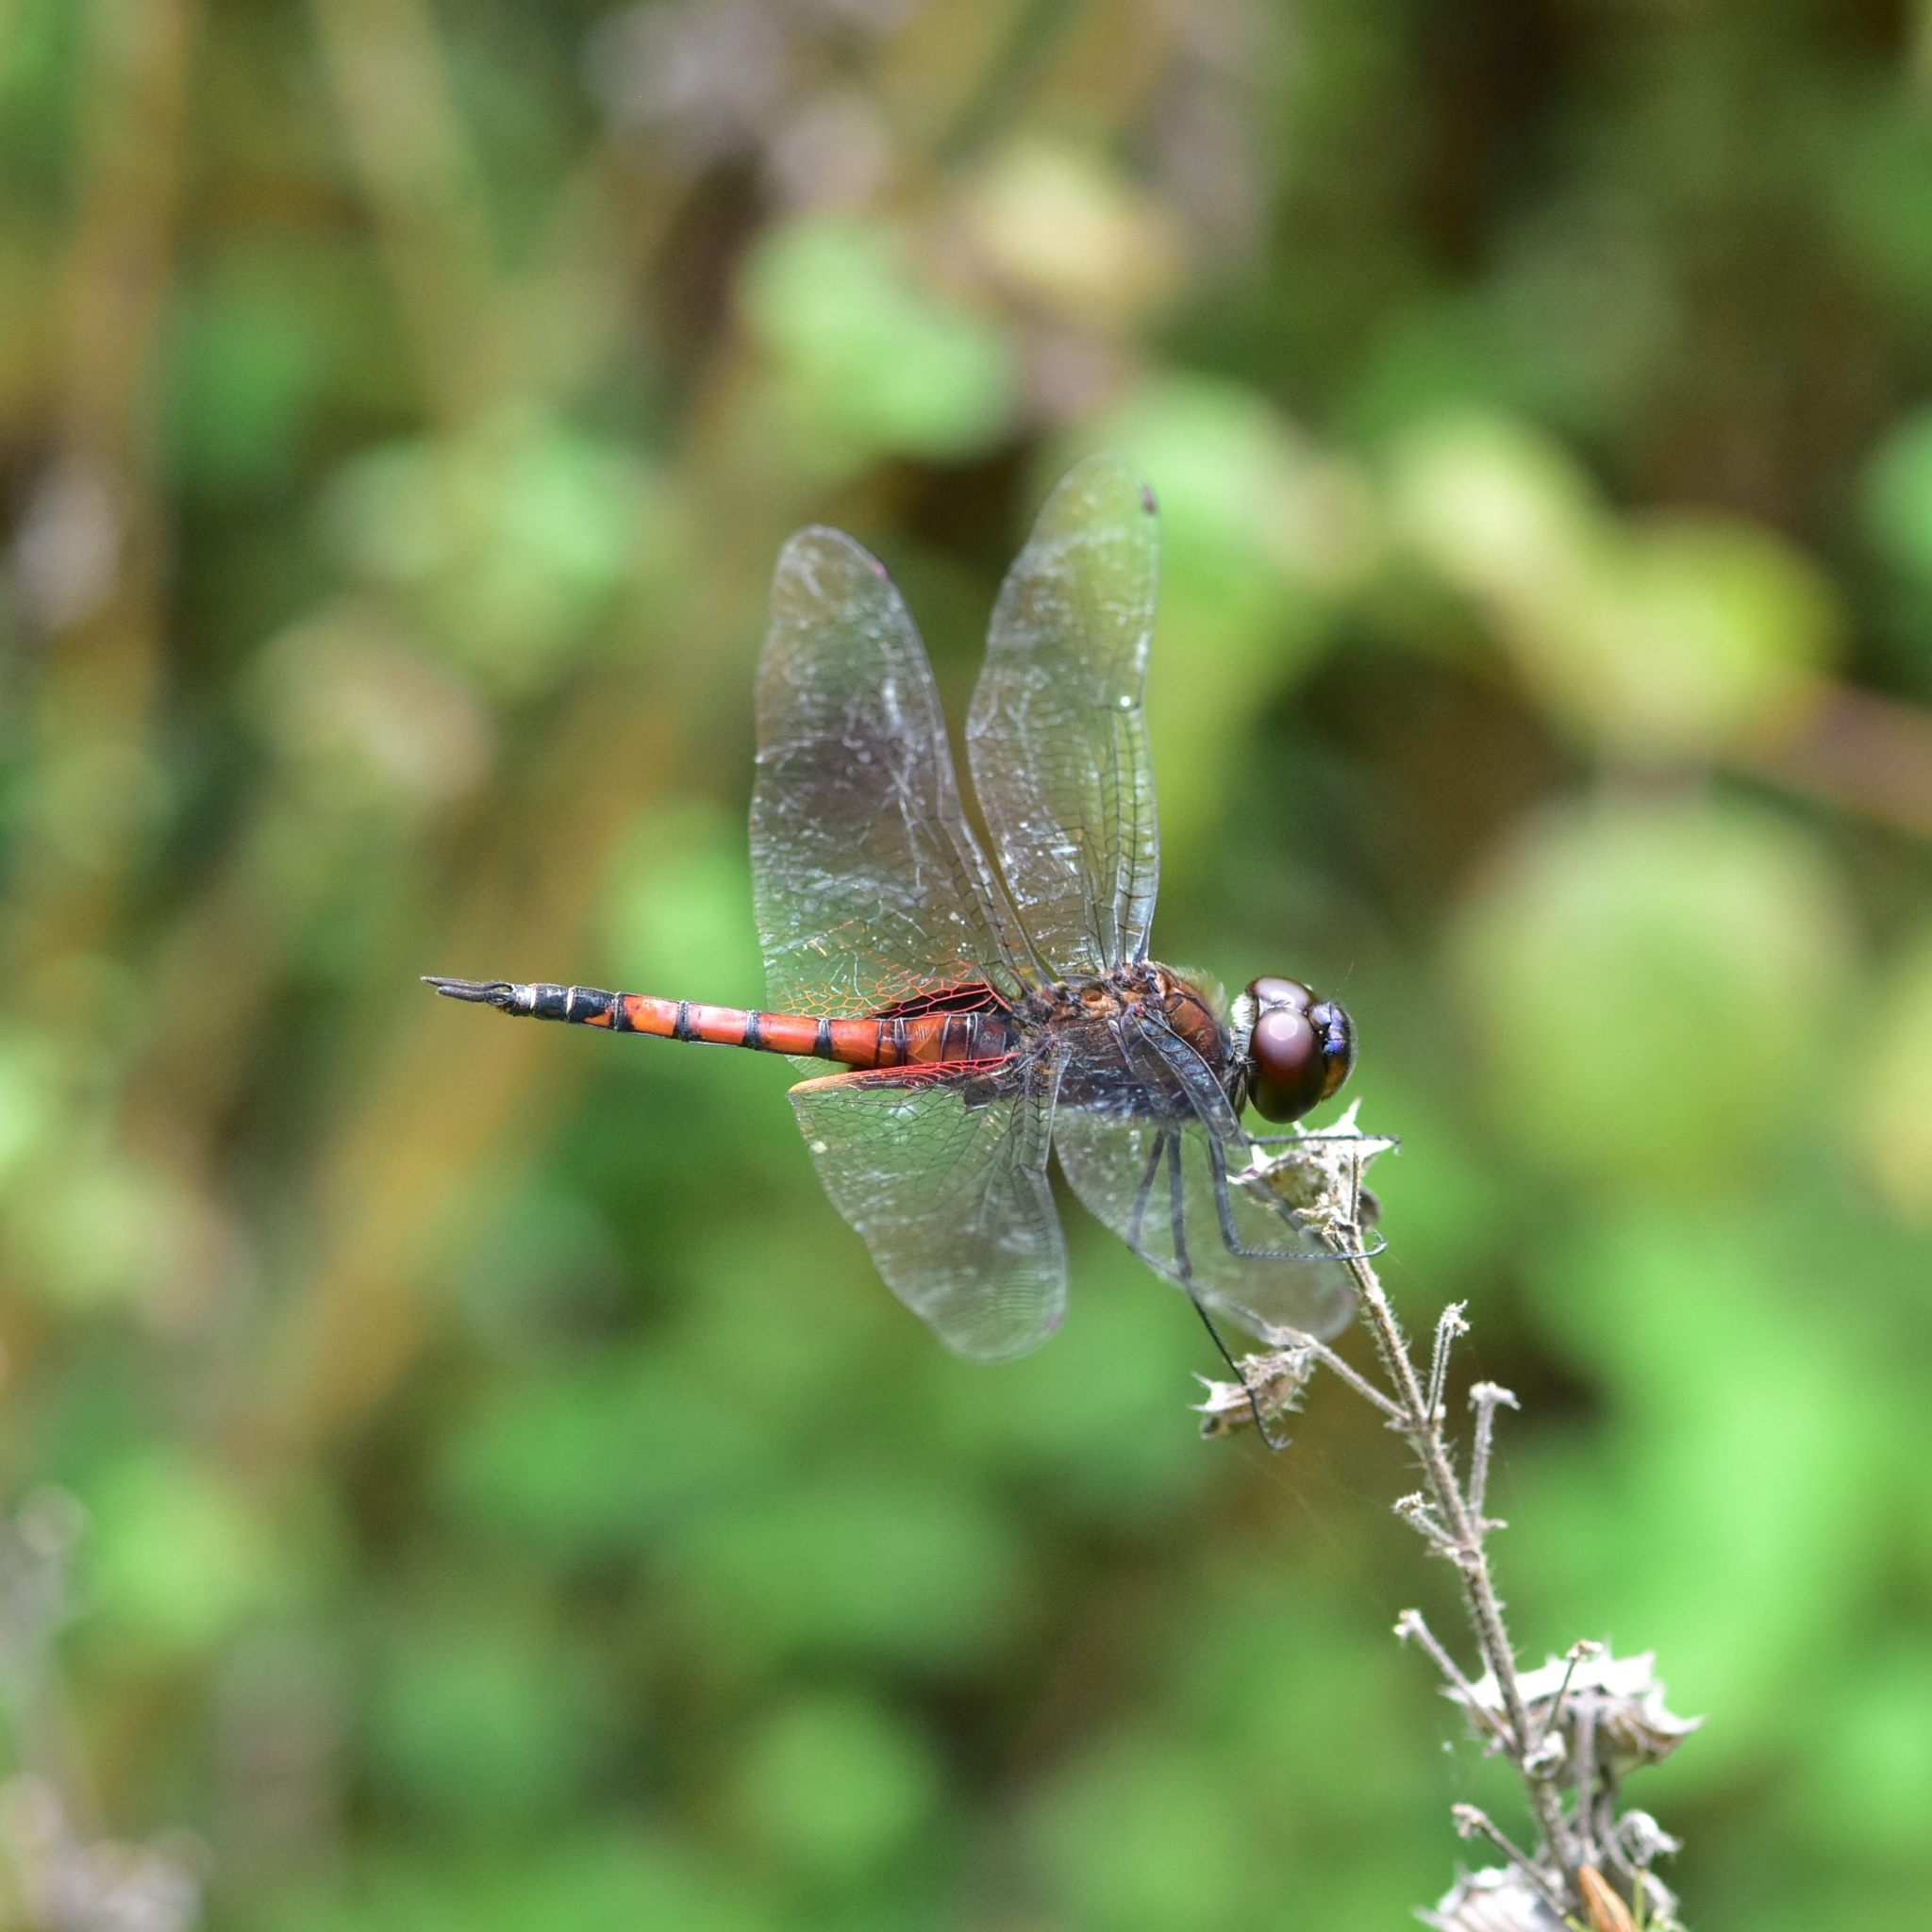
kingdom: Animalia
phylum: Arthropoda
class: Insecta
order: Odonata
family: Libellulidae
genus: Tramea
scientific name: Tramea limbata
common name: Ferruginous glider
